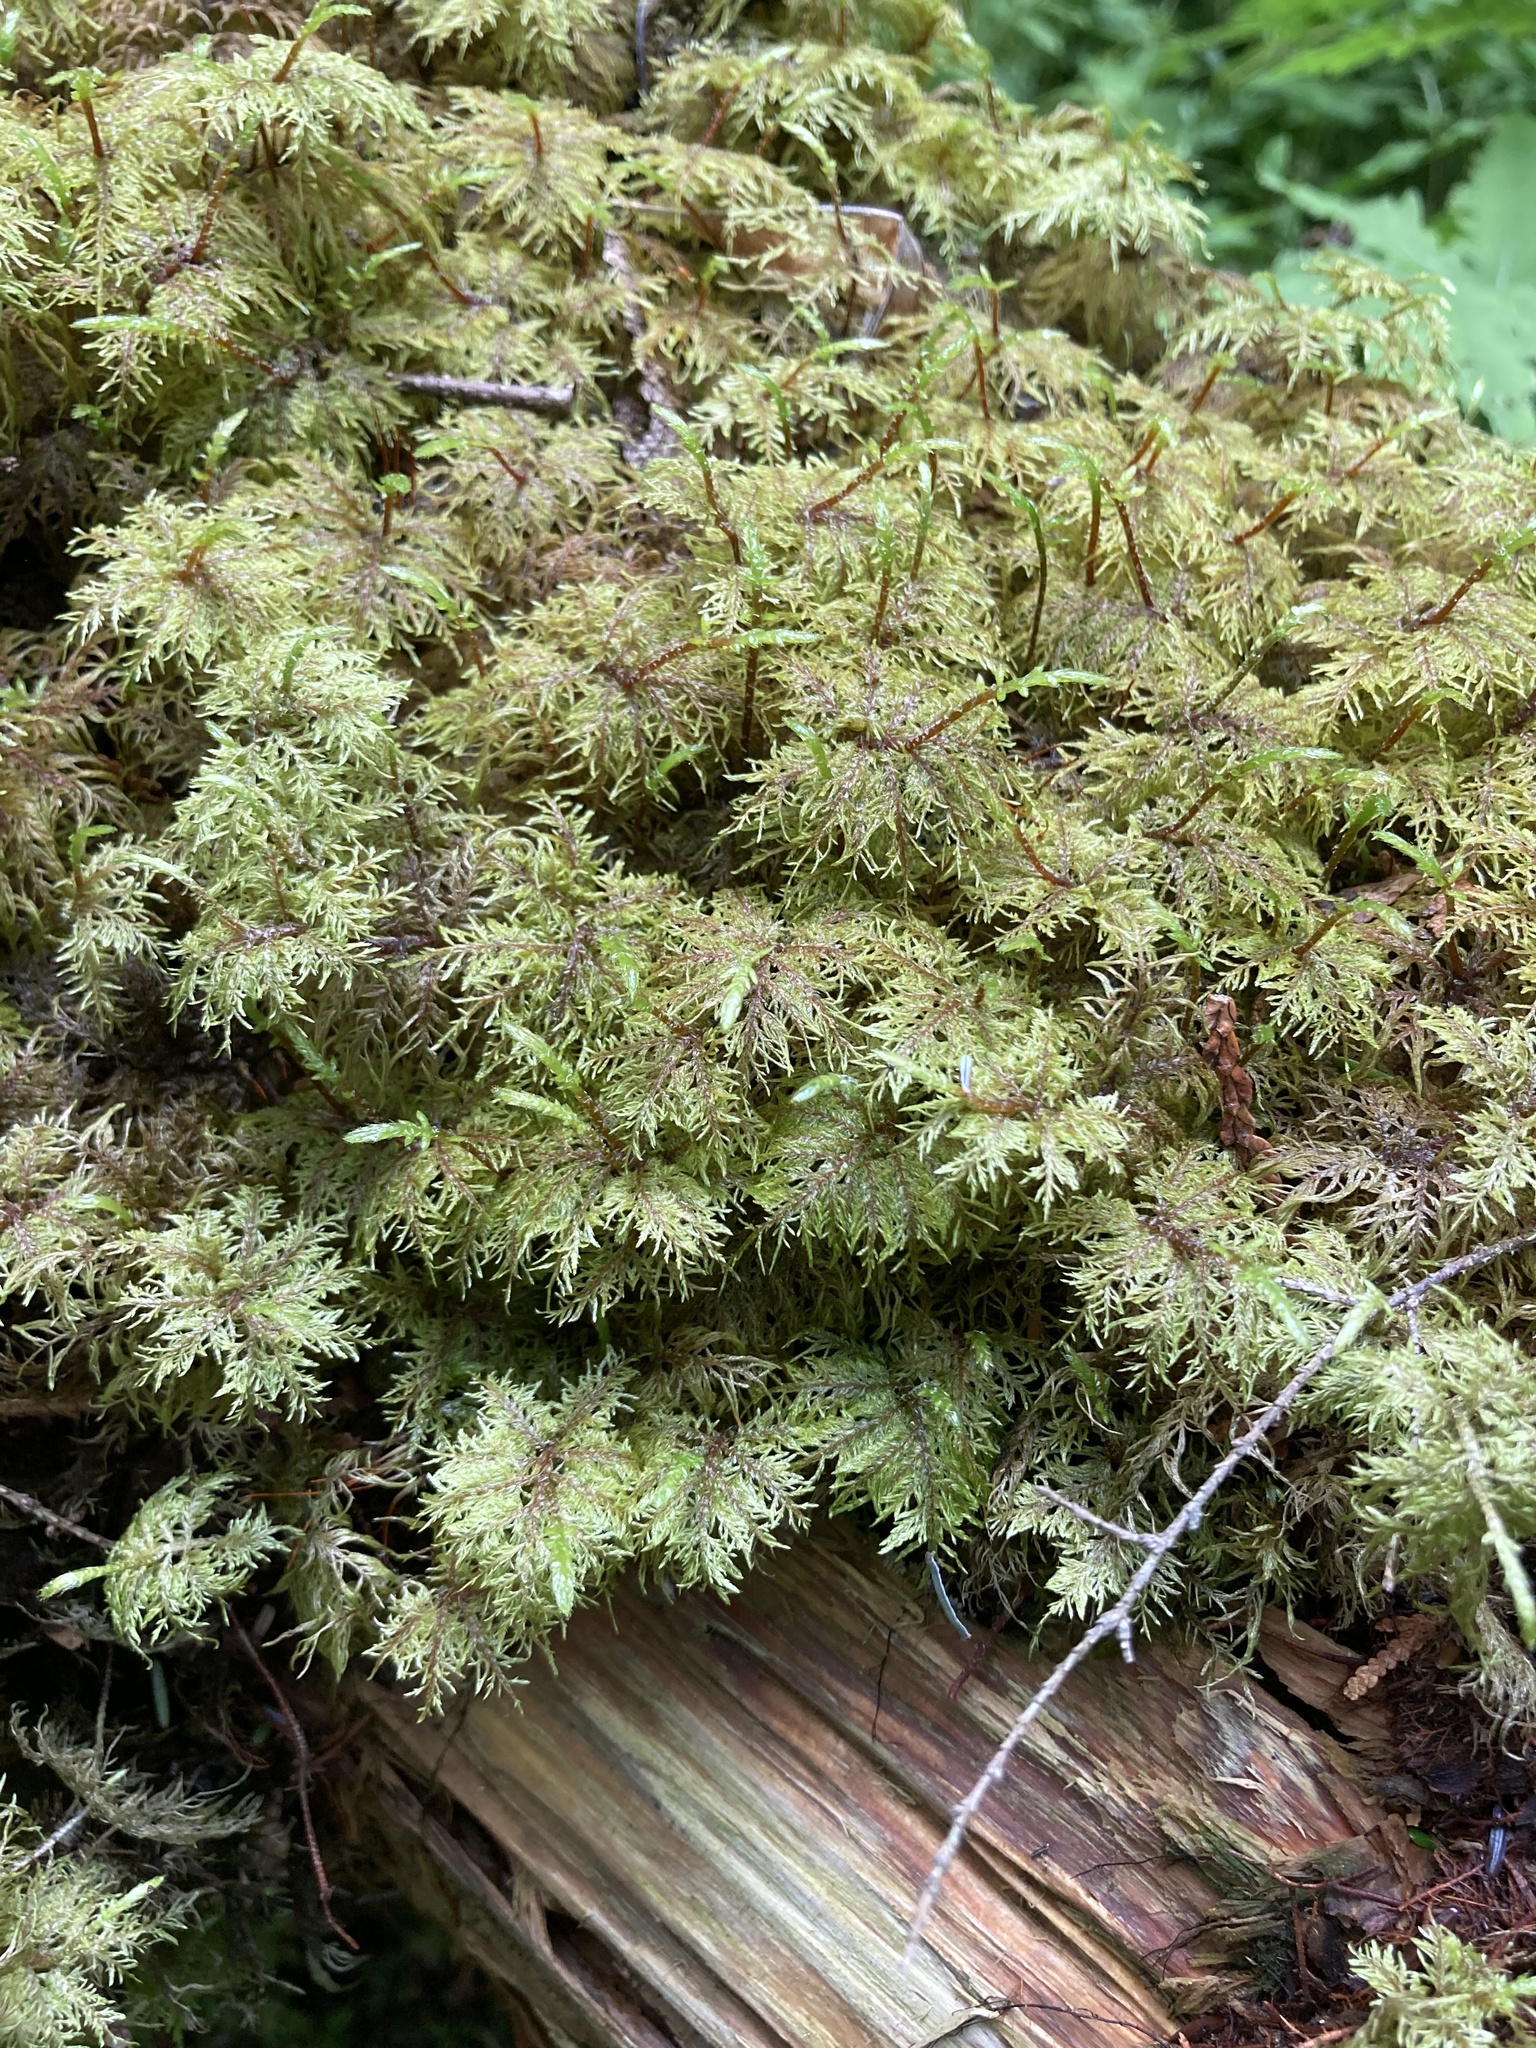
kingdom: Plantae
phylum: Bryophyta
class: Bryopsida
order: Hypnales
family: Hylocomiaceae
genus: Hylocomium
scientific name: Hylocomium splendens
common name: Stairstep moss
